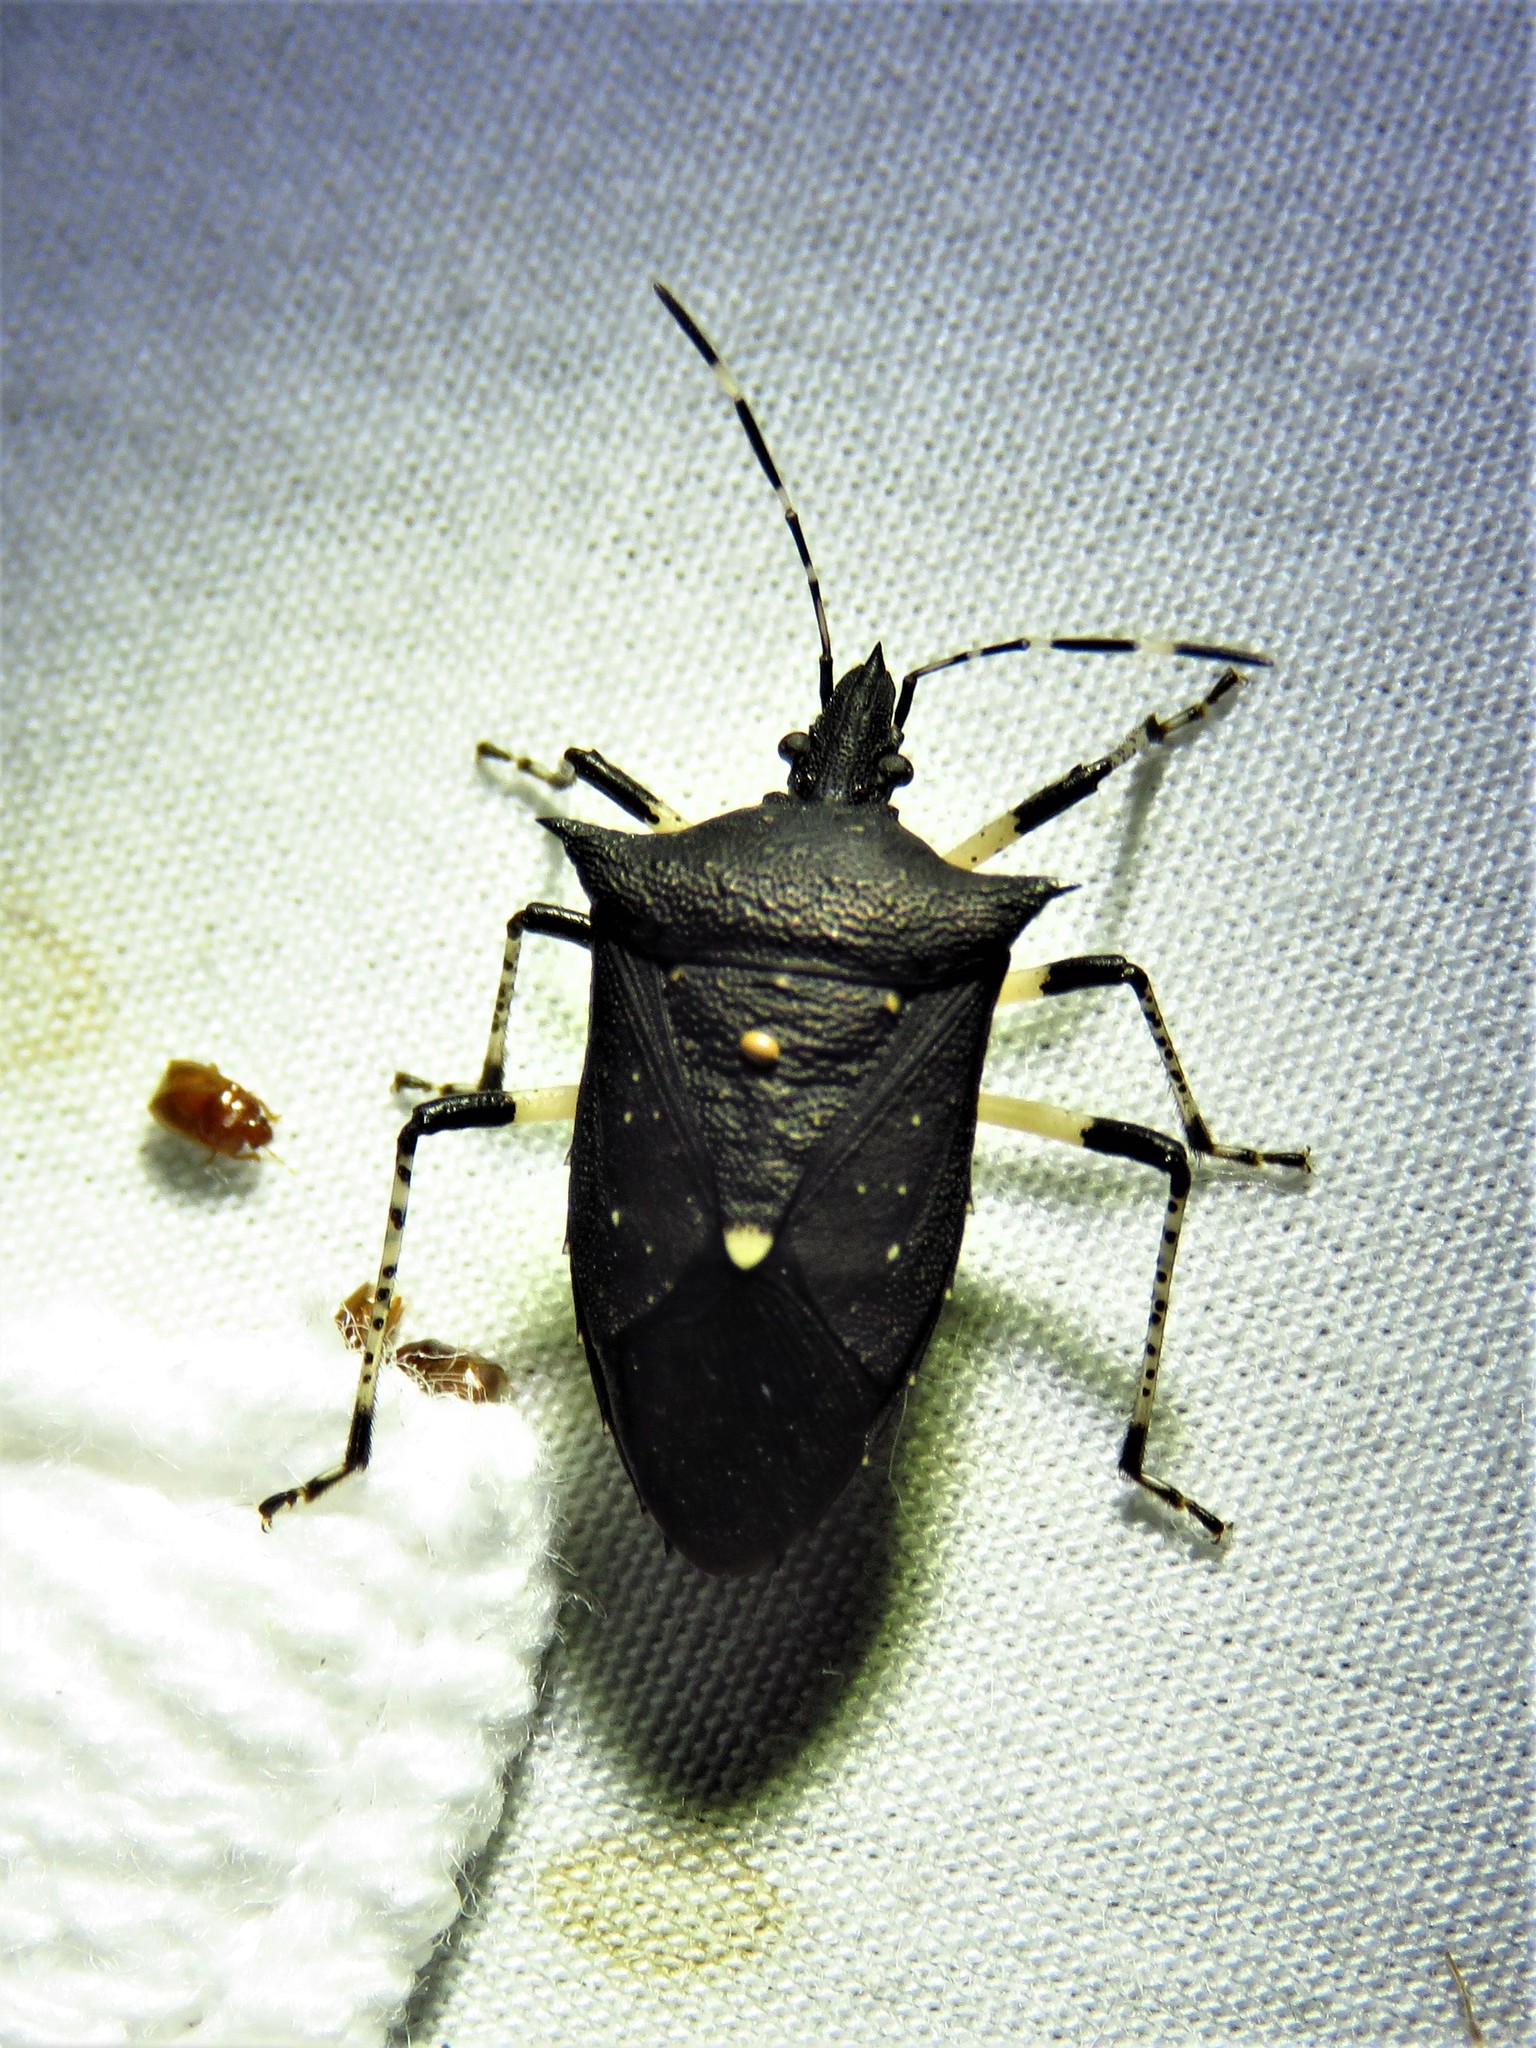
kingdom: Animalia
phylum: Arthropoda
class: Insecta
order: Hemiptera
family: Pentatomidae
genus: Proxys
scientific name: Proxys punctulatus
